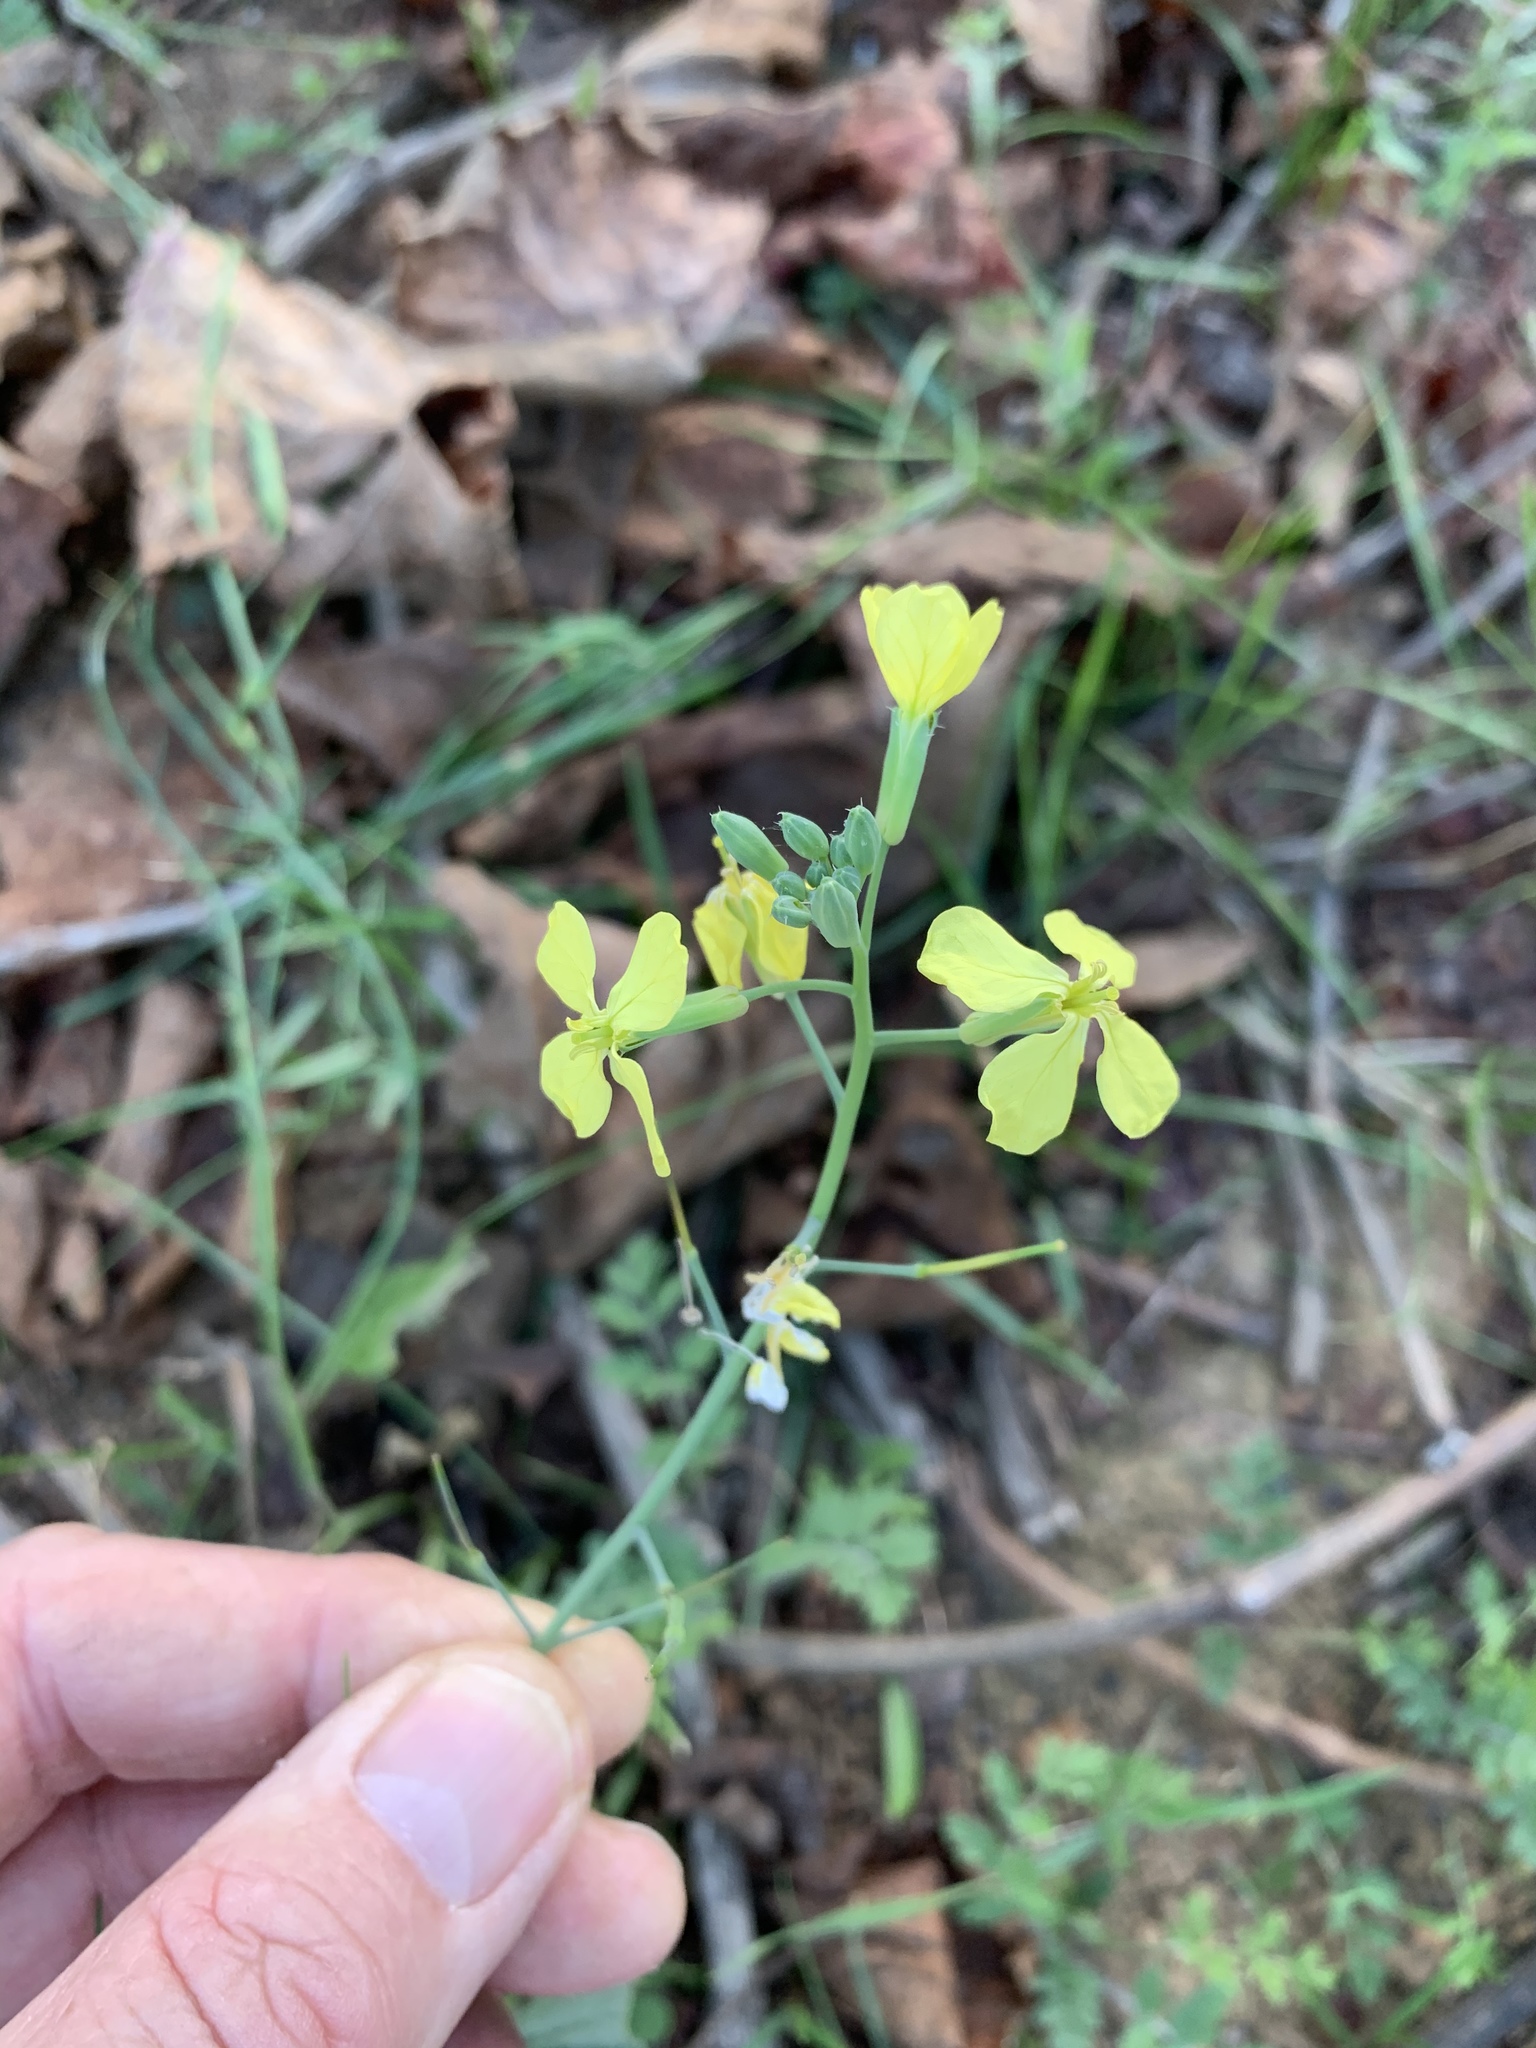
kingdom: Plantae
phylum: Tracheophyta
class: Magnoliopsida
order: Brassicales
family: Brassicaceae
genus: Raphanus
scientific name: Raphanus raphanistrum
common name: Wild radish
